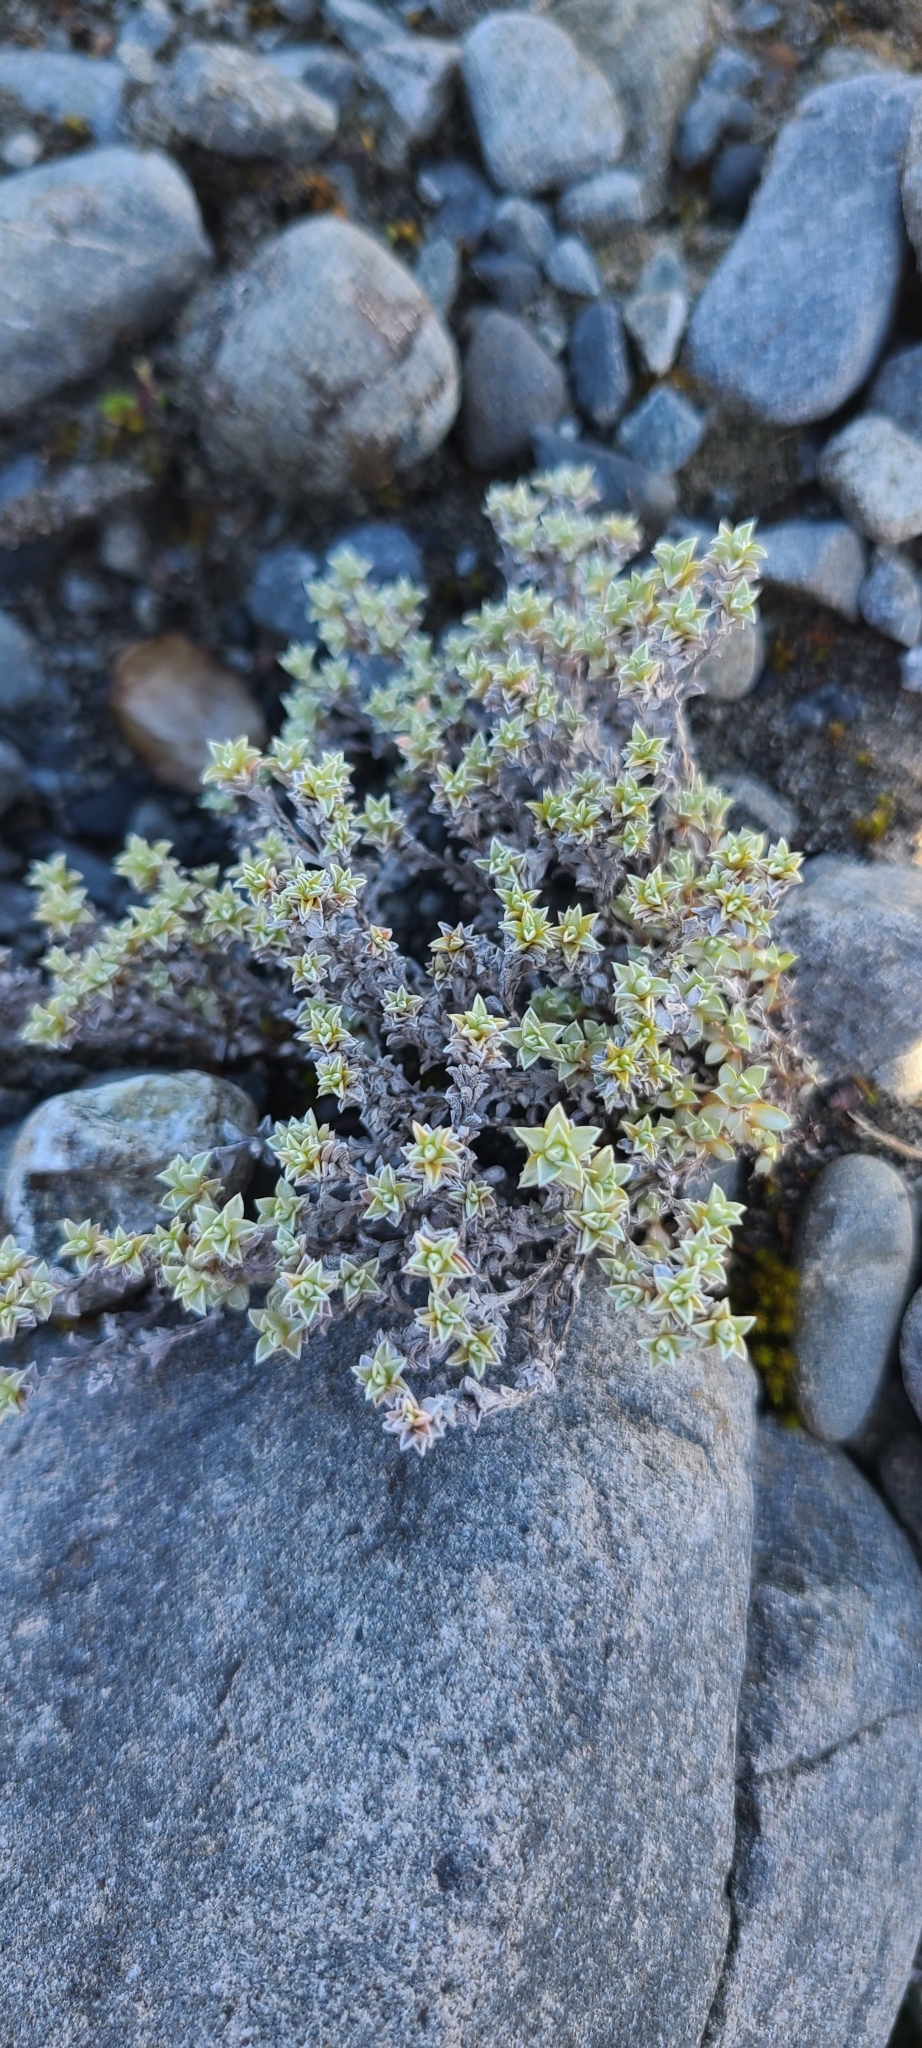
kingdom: Plantae
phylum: Tracheophyta
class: Magnoliopsida
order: Asterales
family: Asteraceae
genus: Raoulia
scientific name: Raoulia tenuicaulis
